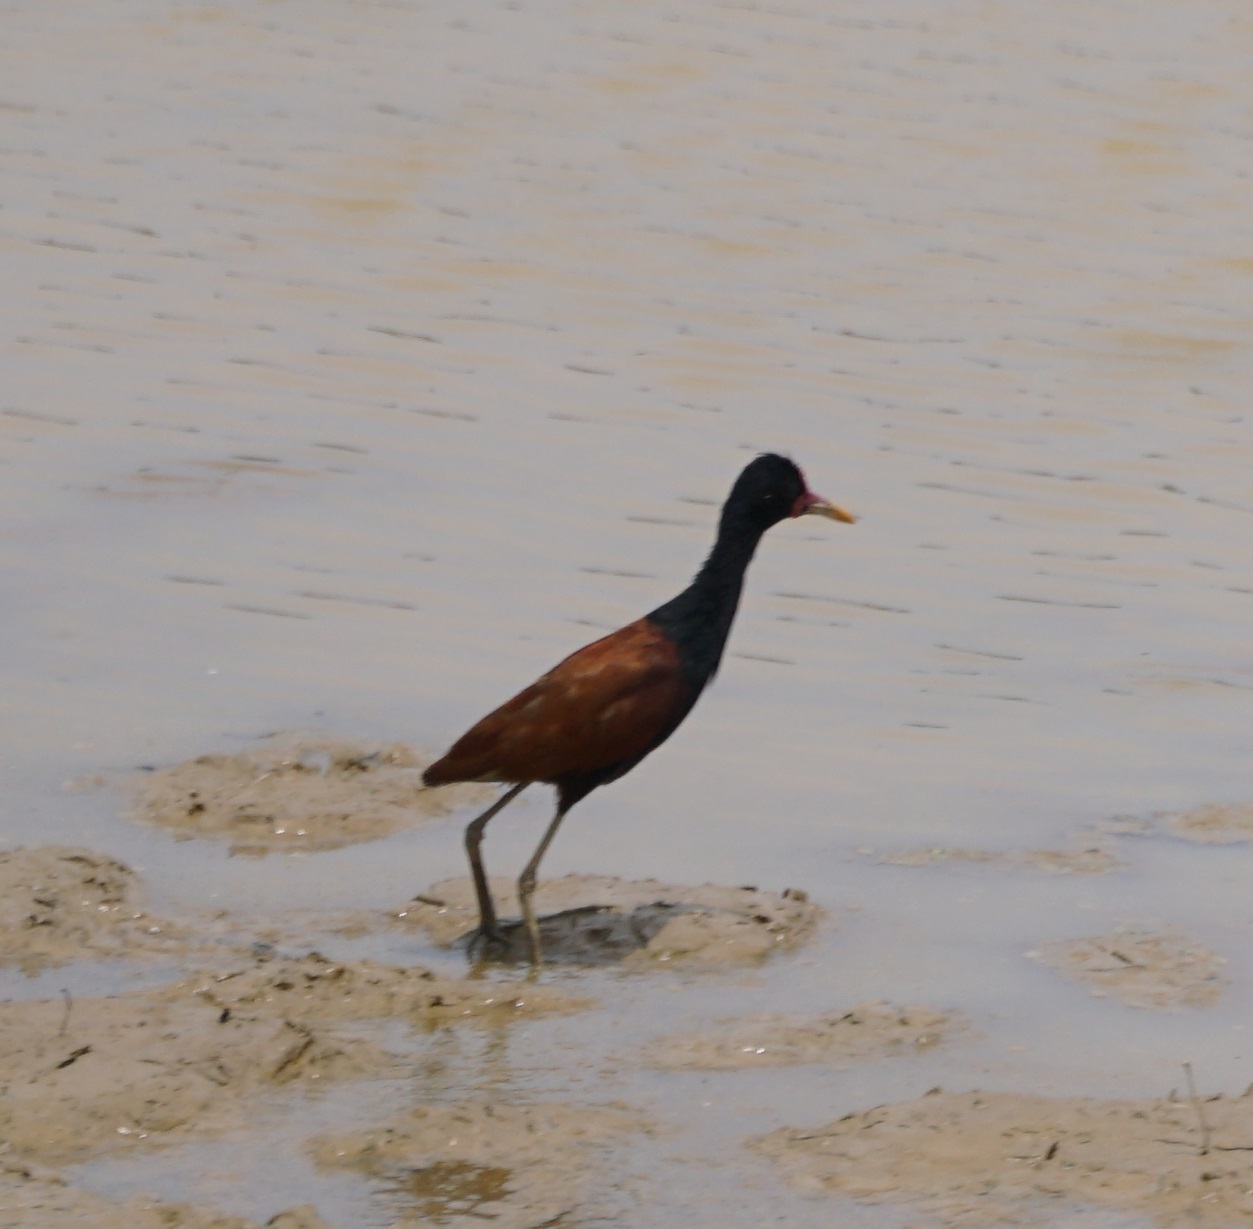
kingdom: Animalia
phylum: Chordata
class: Aves
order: Charadriiformes
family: Jacanidae
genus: Jacana
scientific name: Jacana jacana
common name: Wattled jacana
